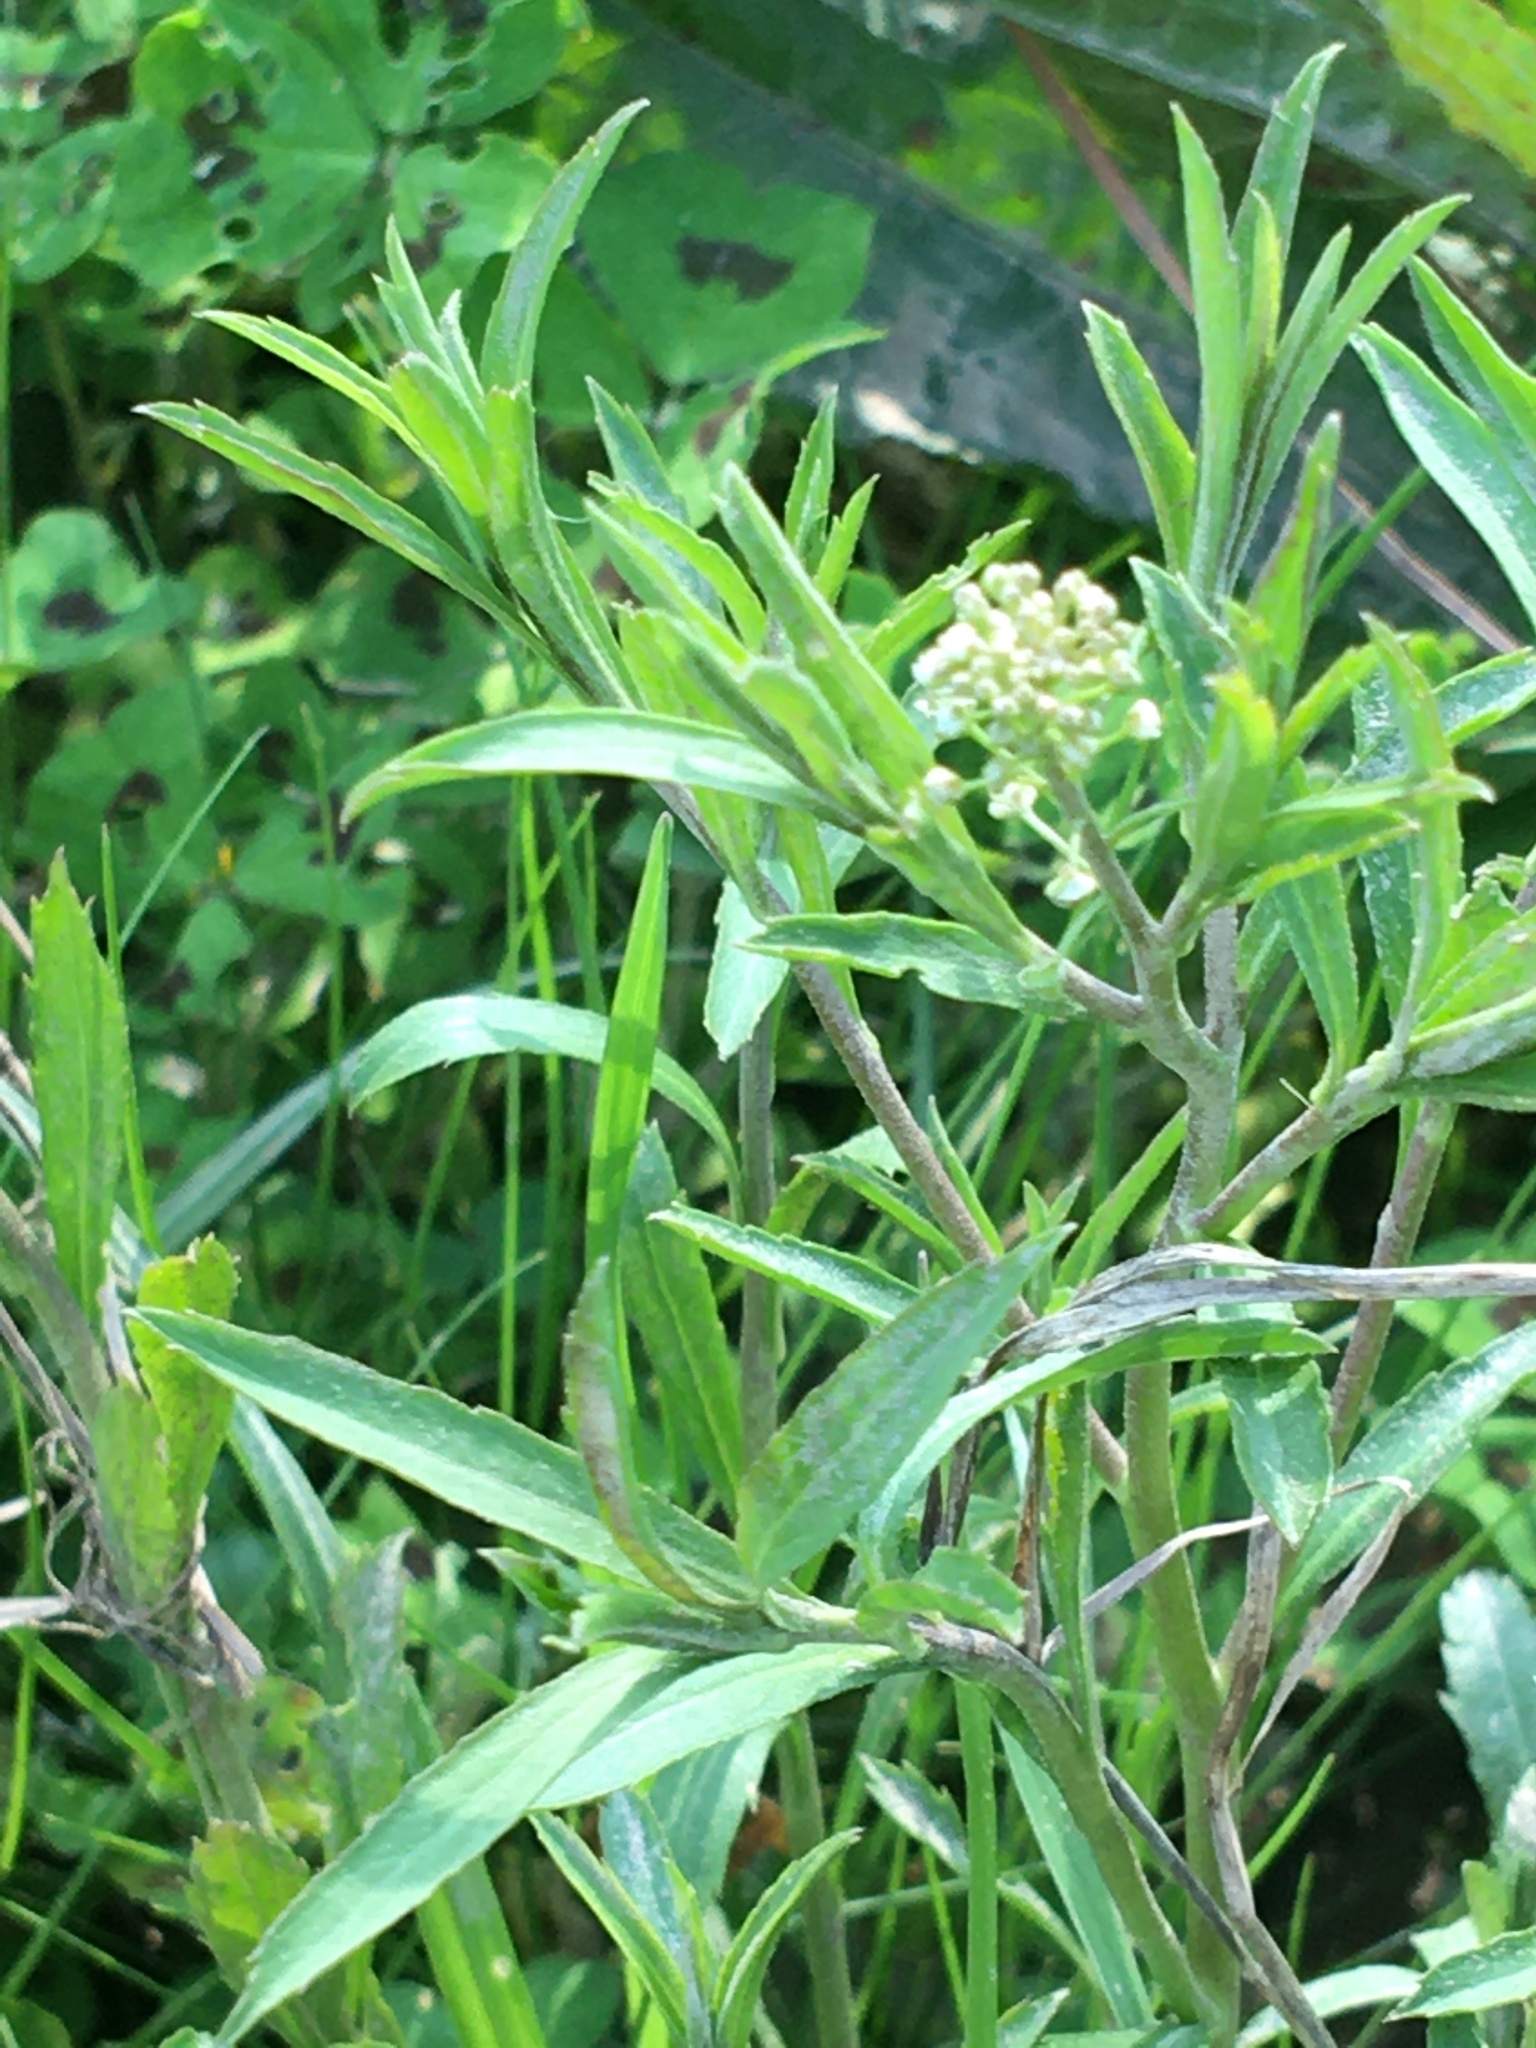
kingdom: Plantae
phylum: Tracheophyta
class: Magnoliopsida
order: Brassicales
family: Brassicaceae
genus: Lepidium
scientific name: Lepidium virginicum
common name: Least pepperwort
